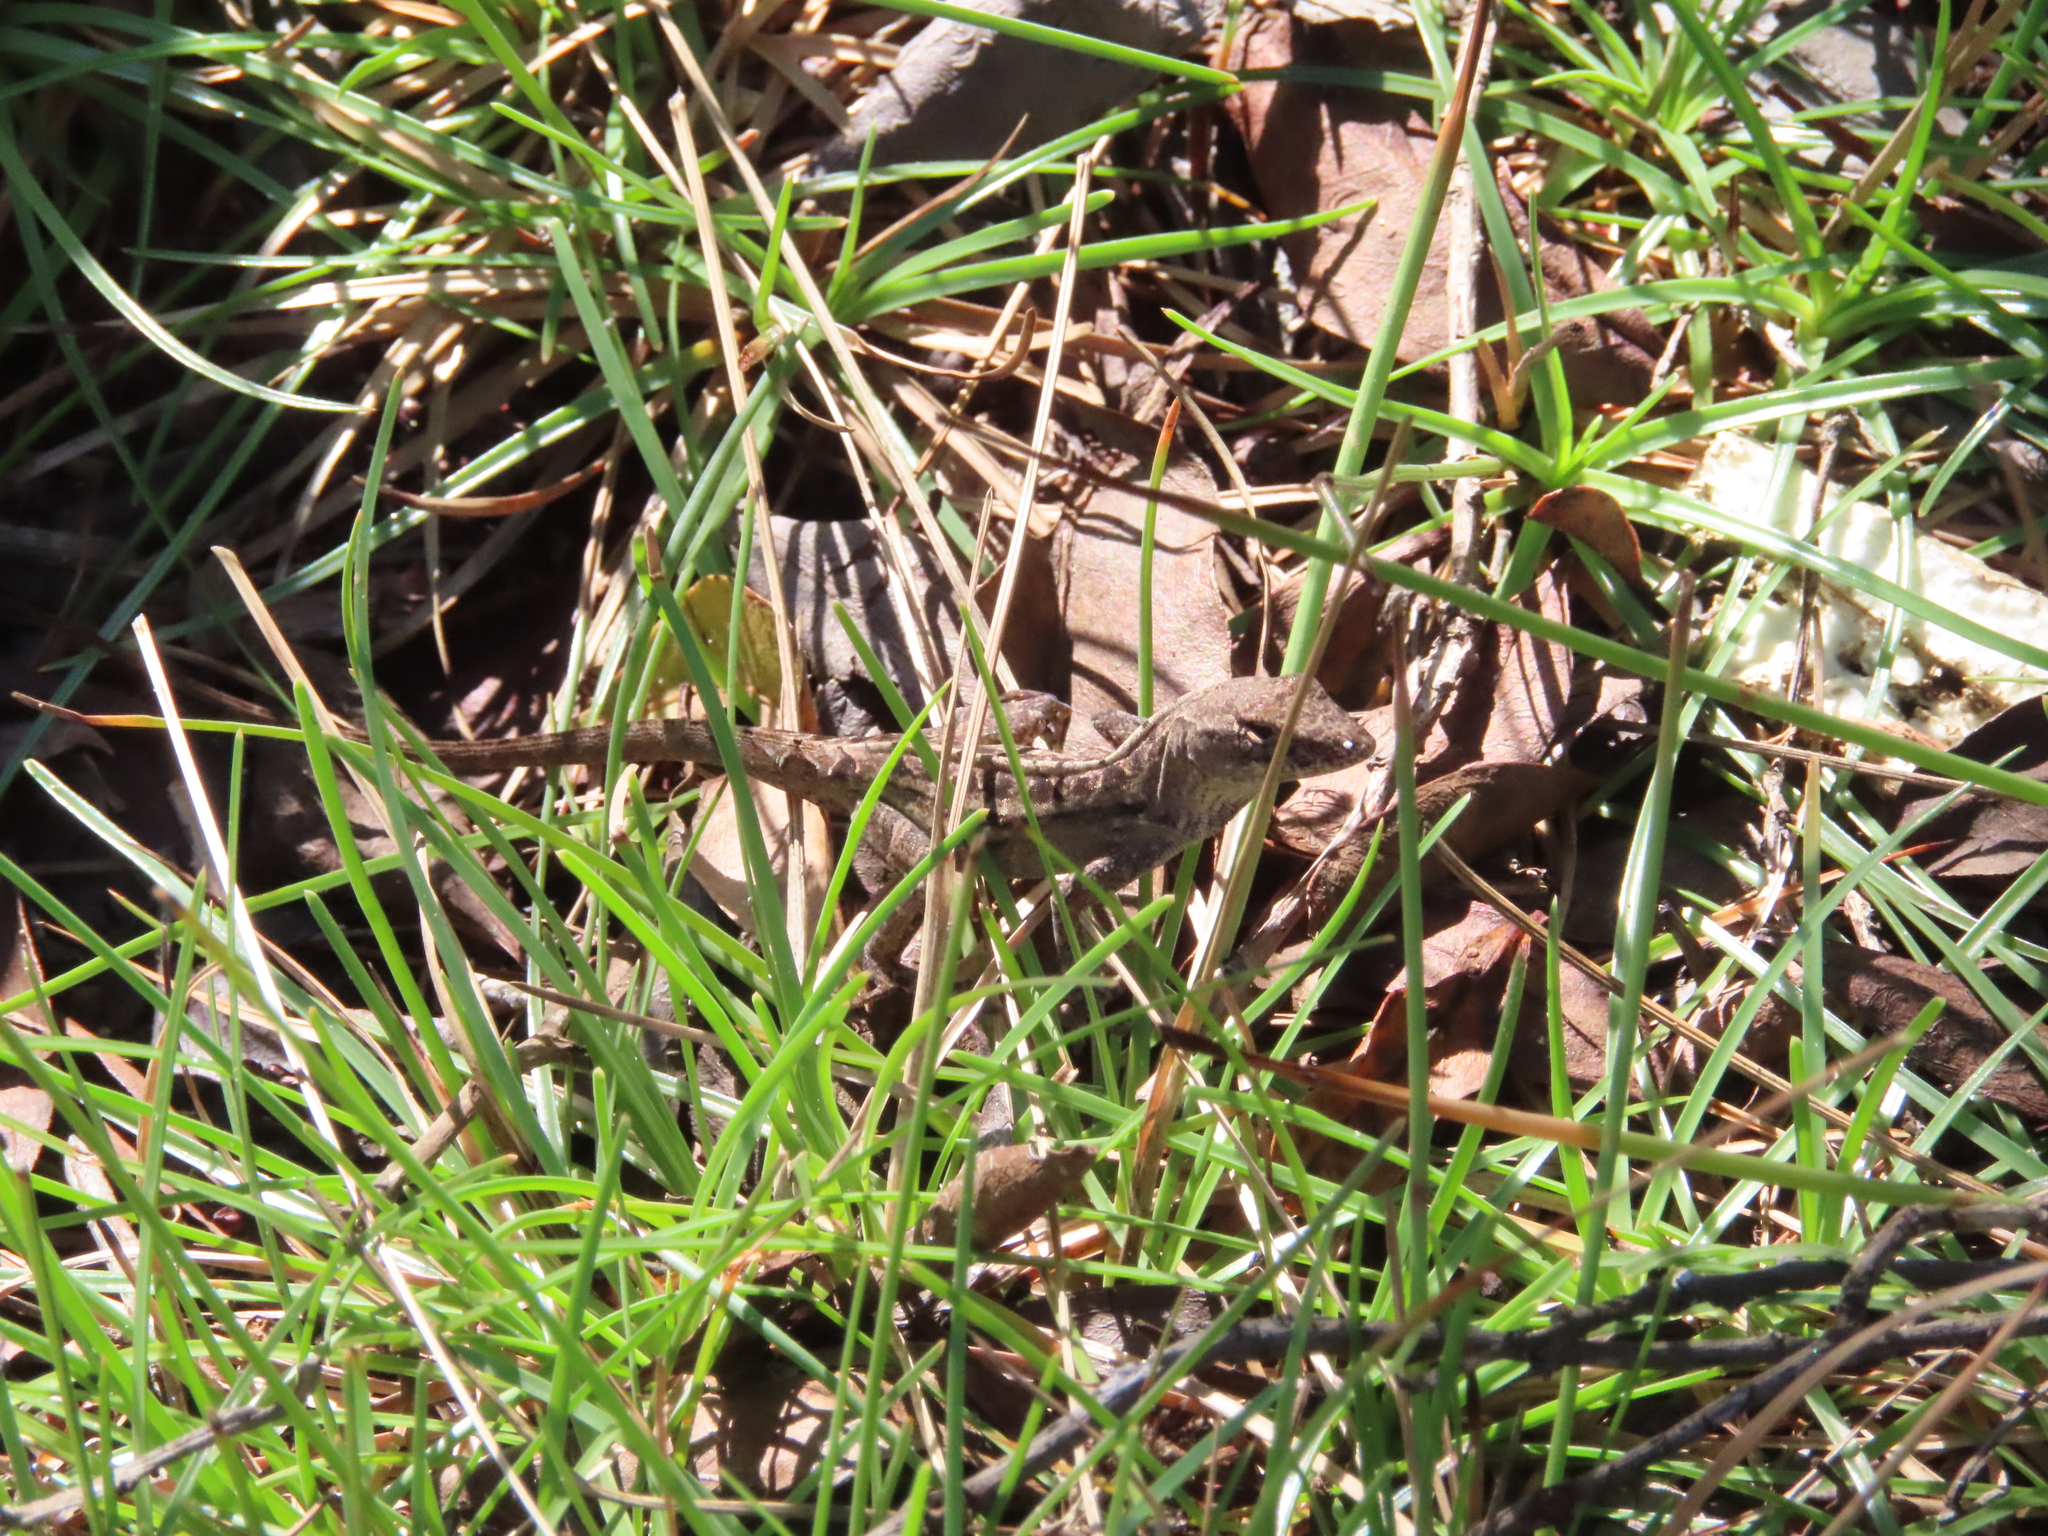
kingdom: Animalia
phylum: Chordata
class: Squamata
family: Dactyloidae
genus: Anolis
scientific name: Anolis sagrei
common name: Brown anole
